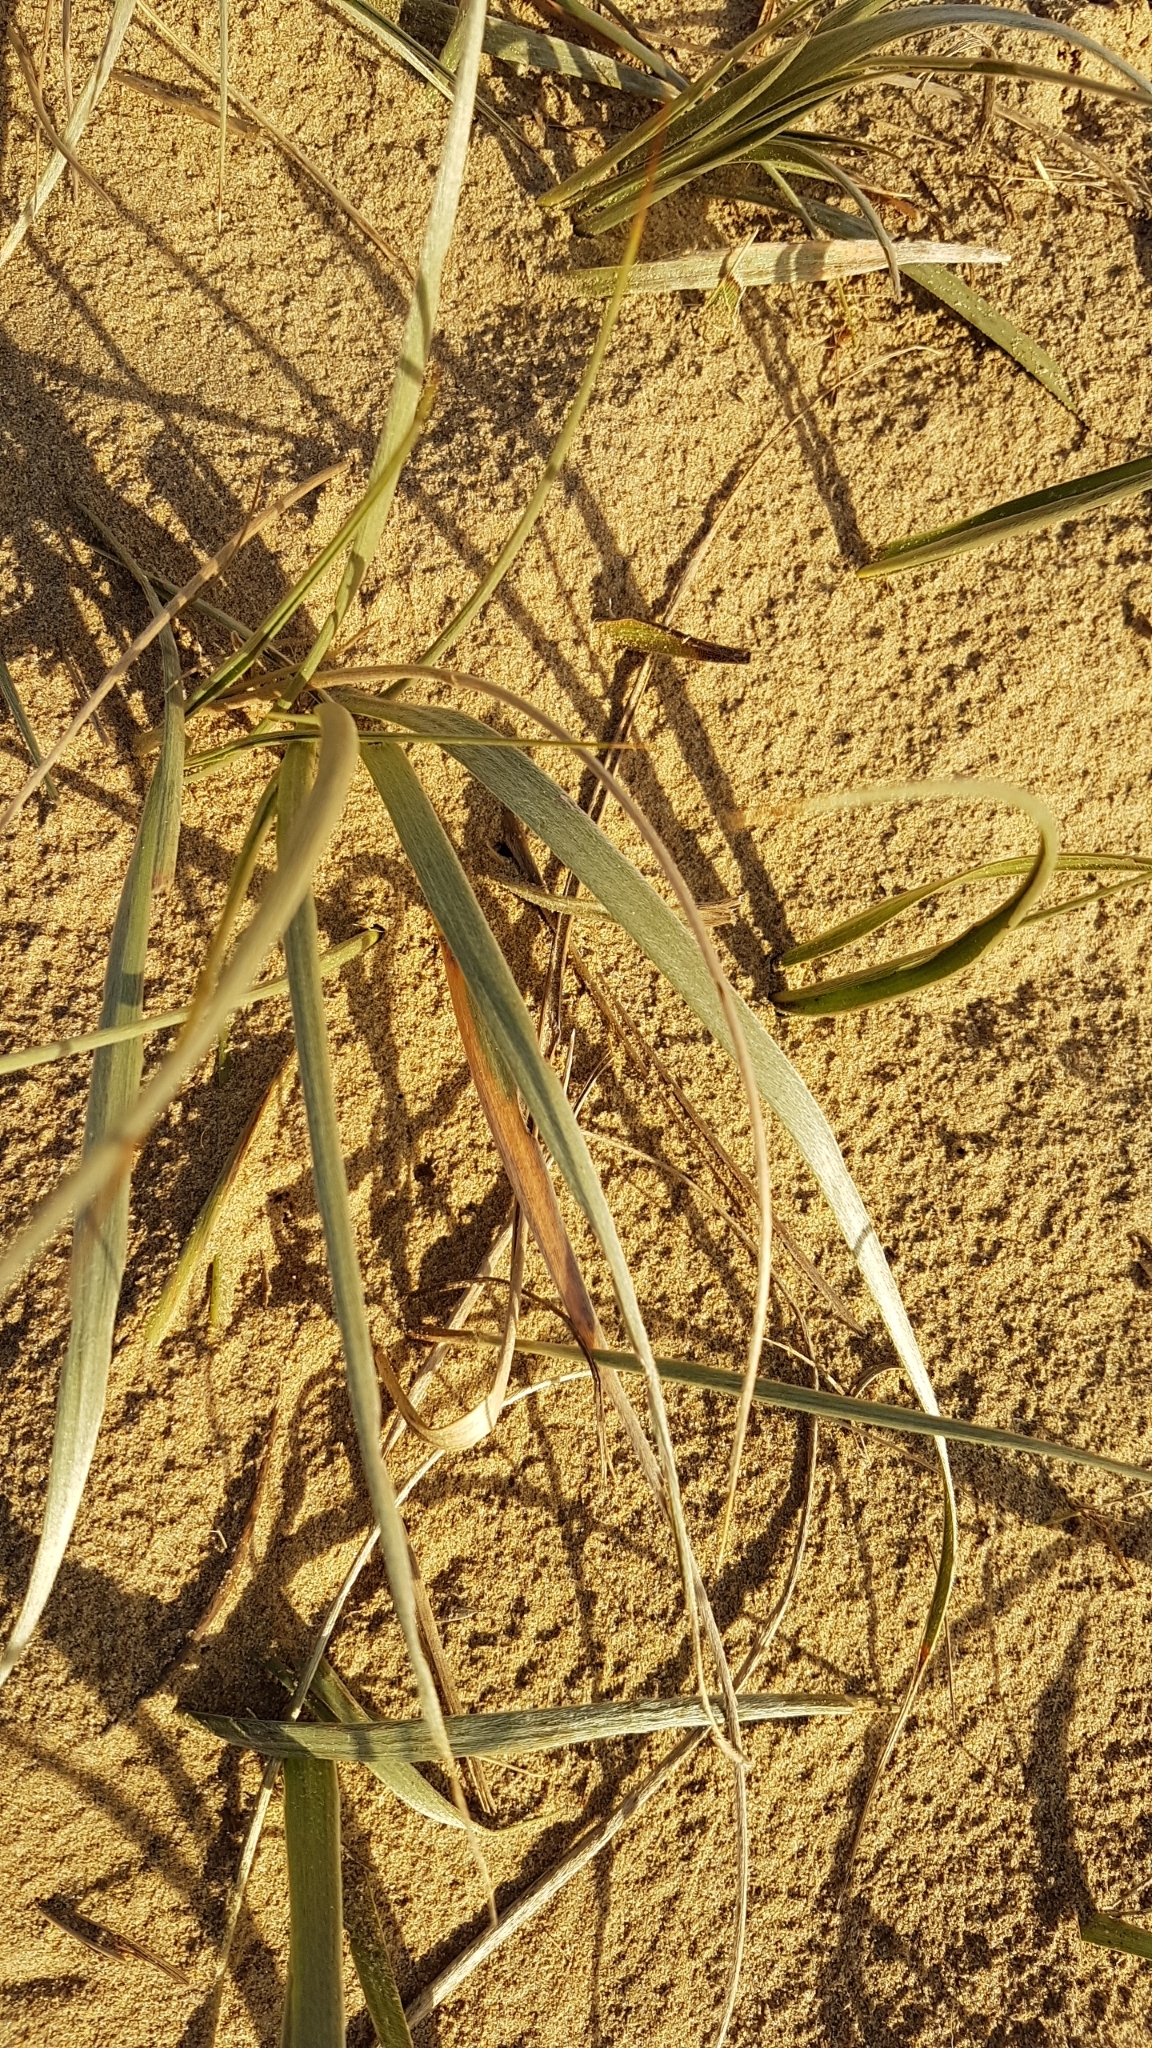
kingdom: Plantae
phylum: Tracheophyta
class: Liliopsida
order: Poales
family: Poaceae
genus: Spinifex
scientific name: Spinifex sericeus
